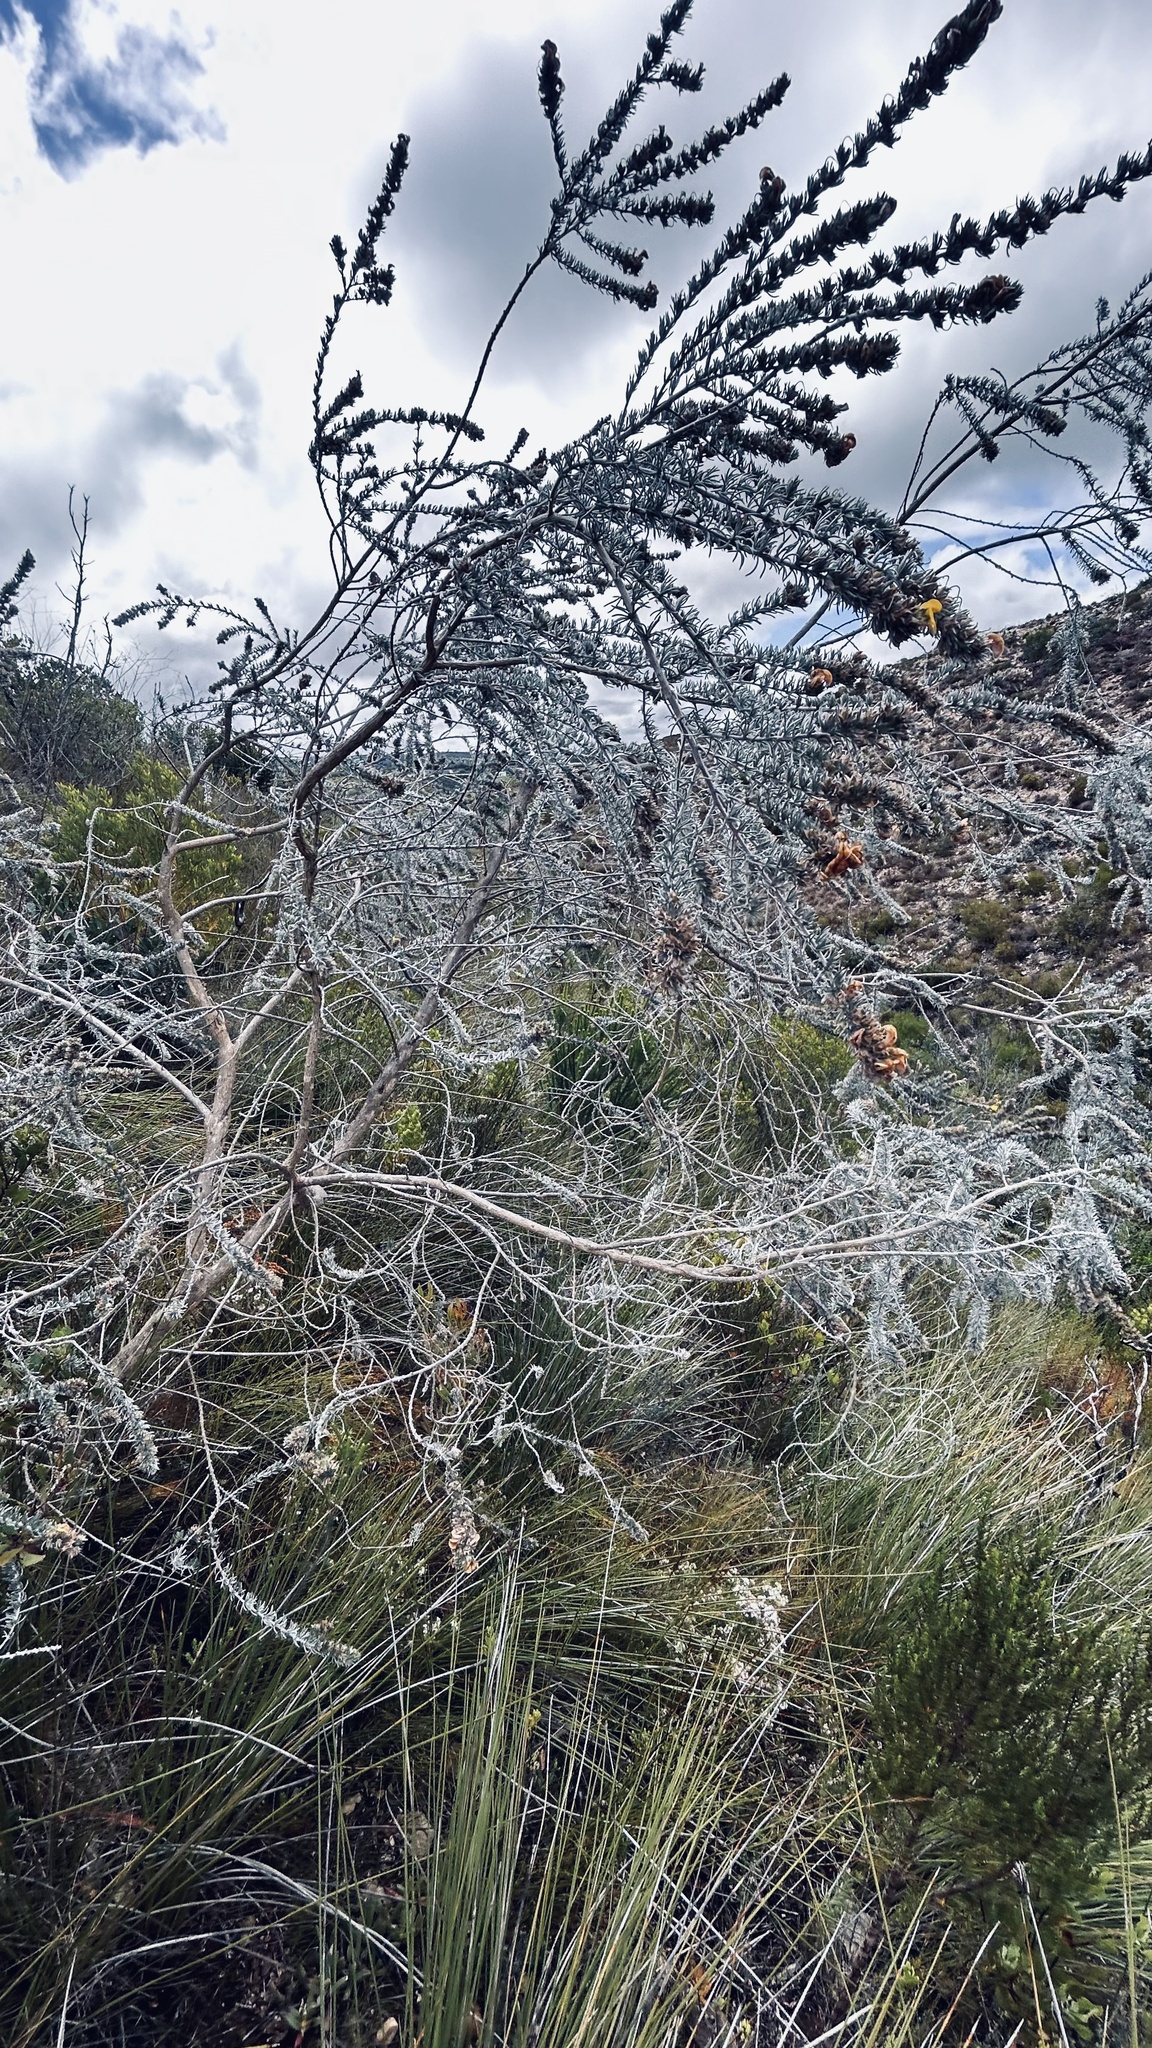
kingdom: Plantae
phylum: Tracheophyta
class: Magnoliopsida
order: Fabales
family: Fabaceae
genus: Aspalathus
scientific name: Aspalathus nickhelmei
